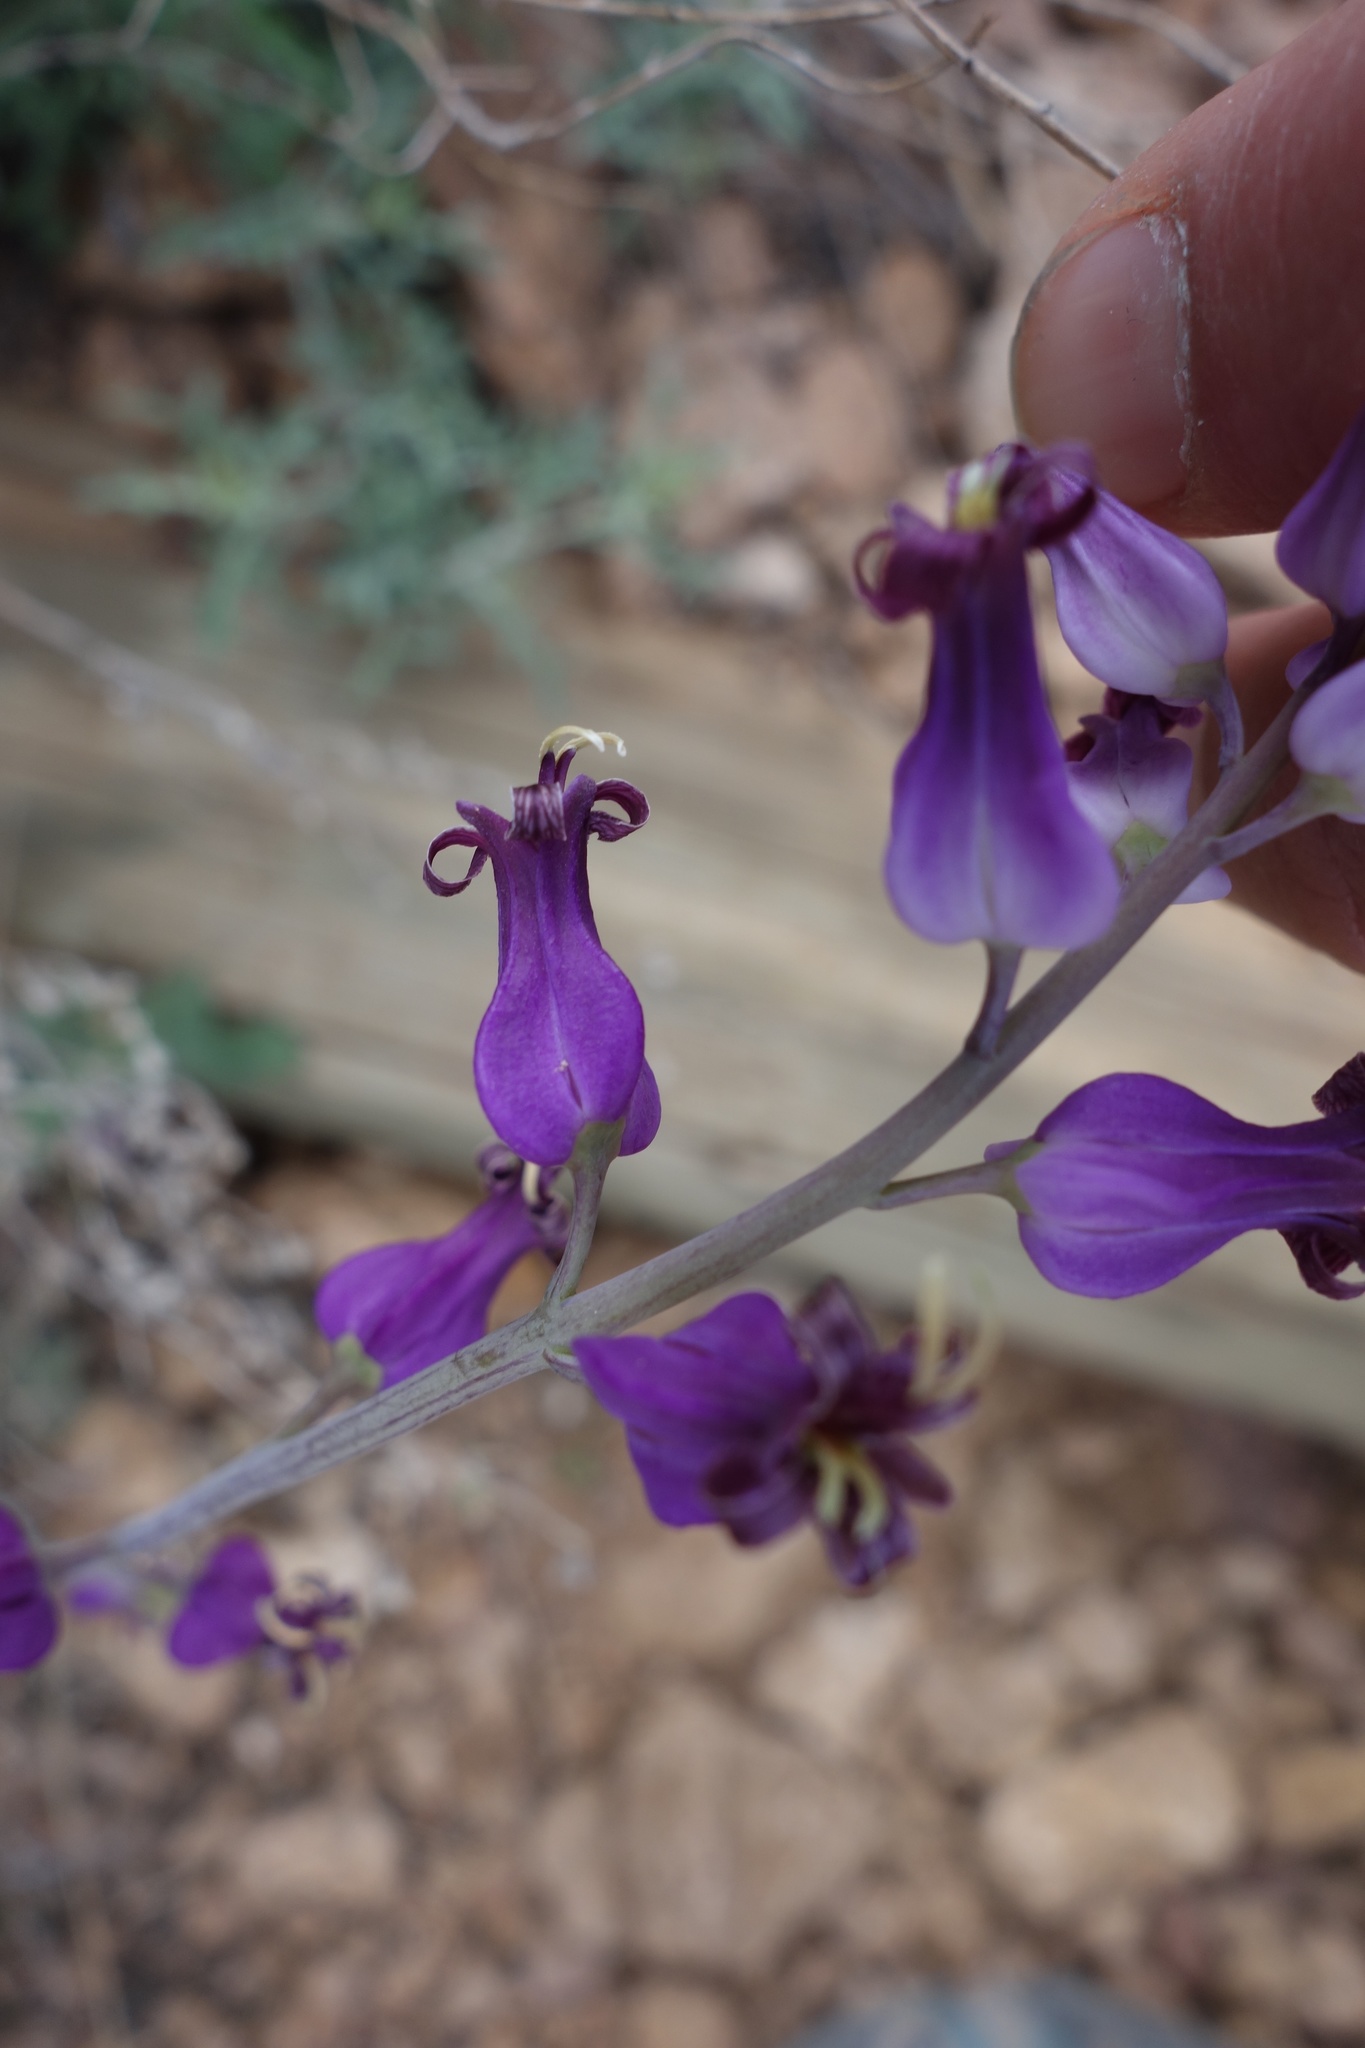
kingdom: Plantae
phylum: Tracheophyta
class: Magnoliopsida
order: Brassicales
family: Brassicaceae
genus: Streptanthus
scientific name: Streptanthus carinatus
